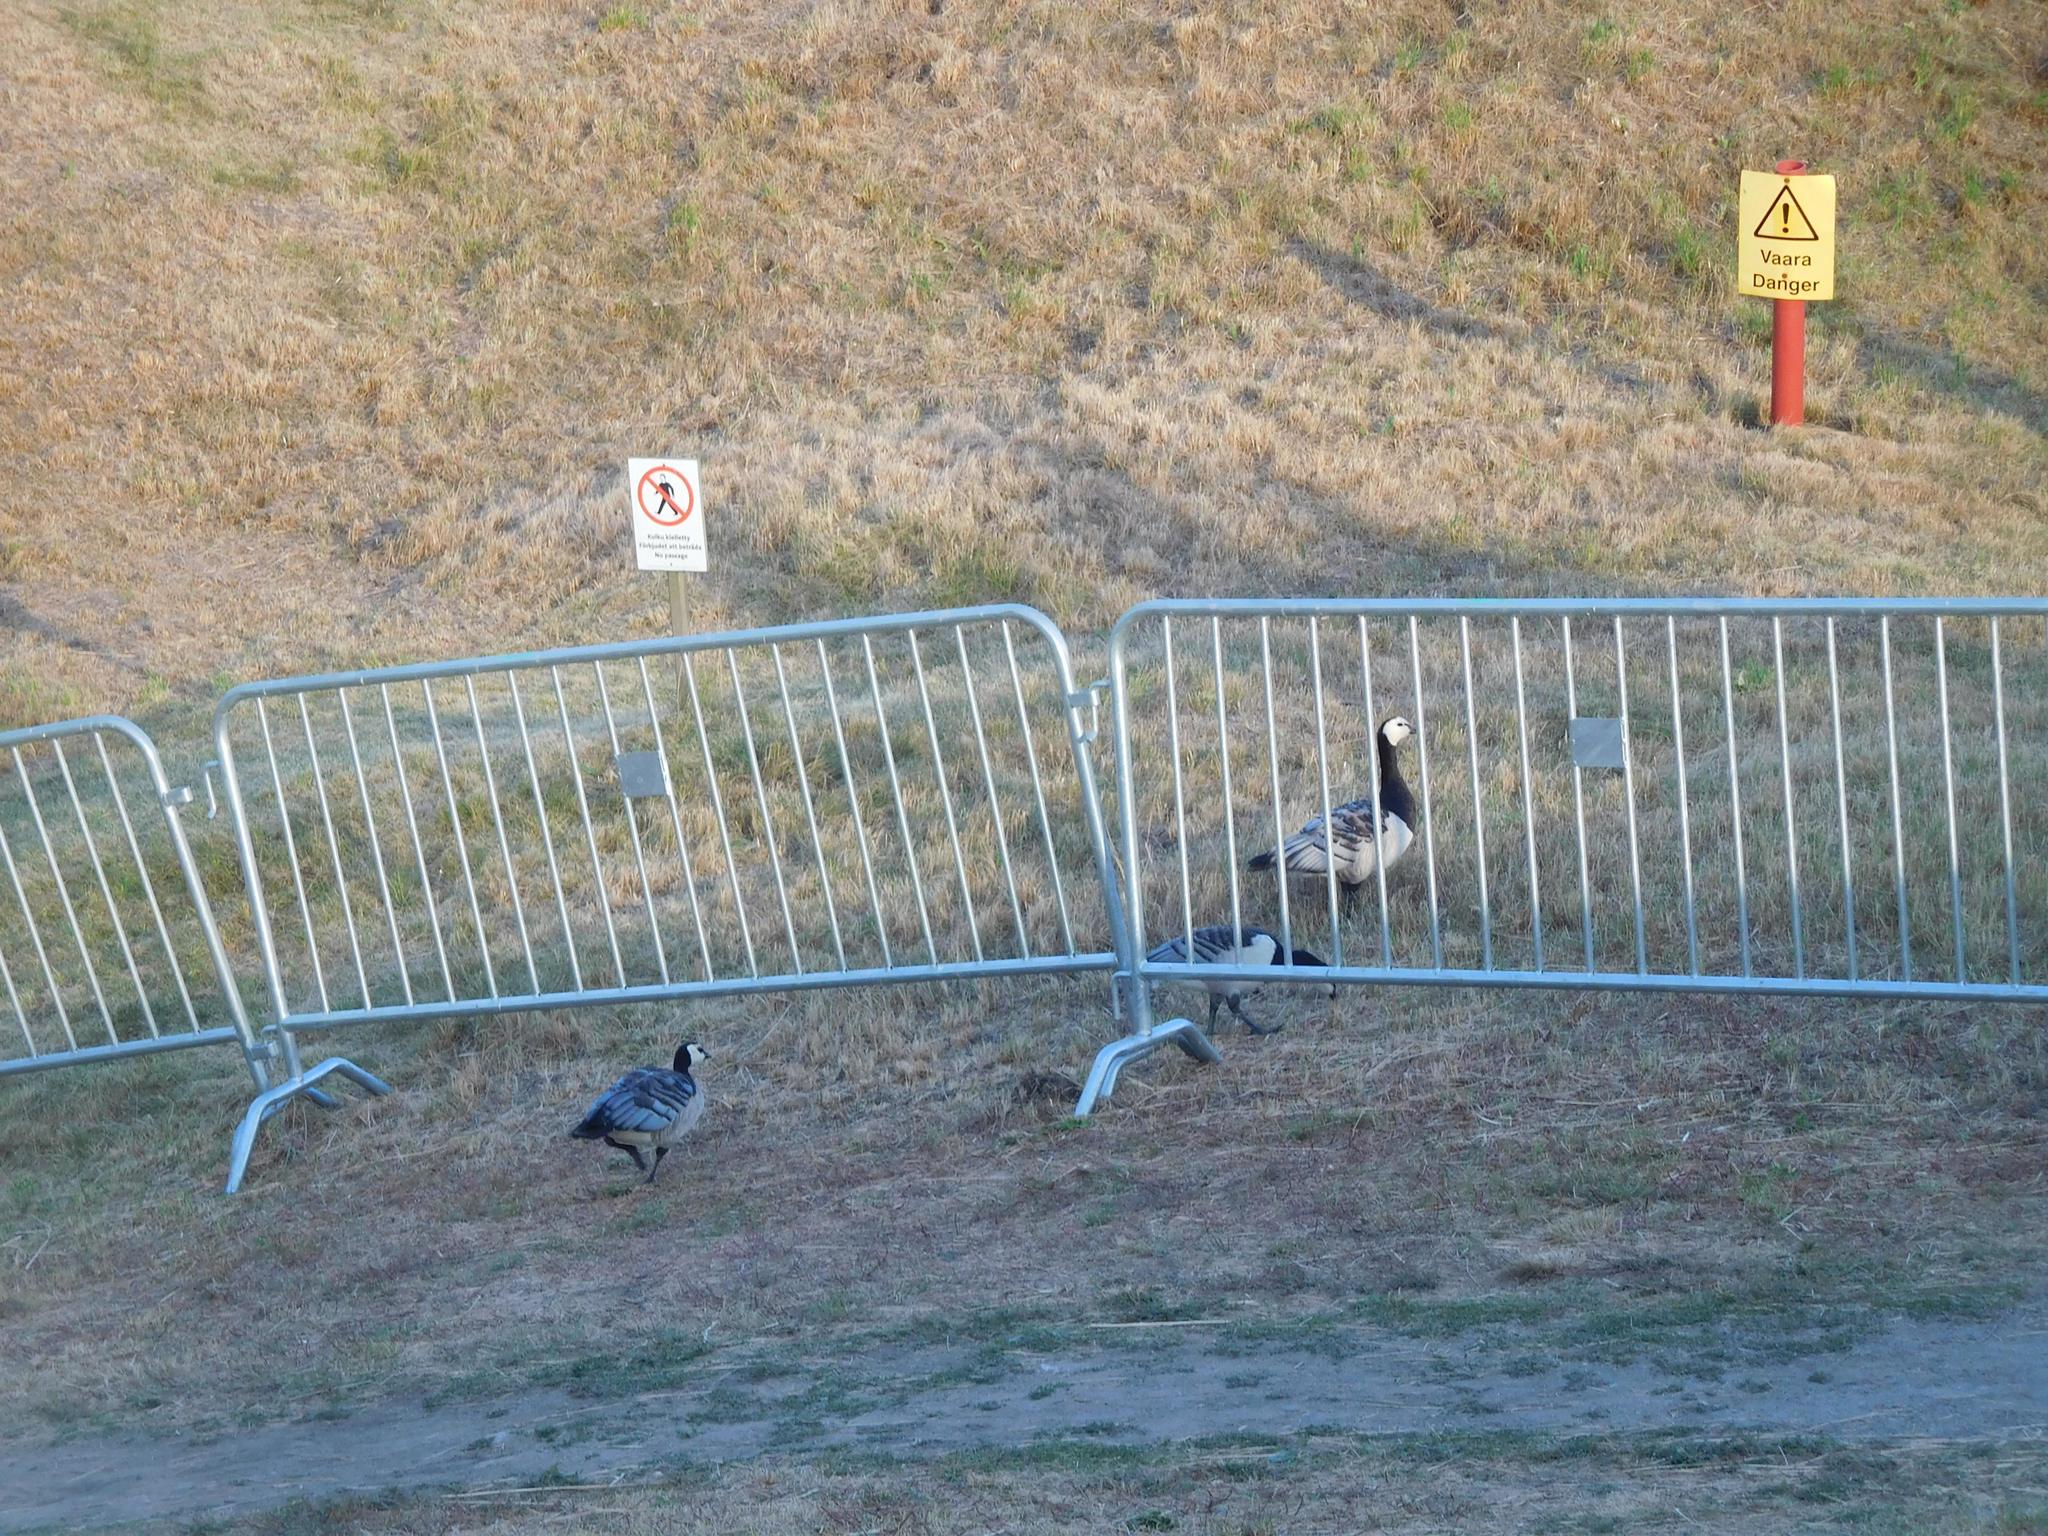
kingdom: Animalia
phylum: Chordata
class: Aves
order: Anseriformes
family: Anatidae
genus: Branta
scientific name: Branta leucopsis
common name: Barnacle goose
